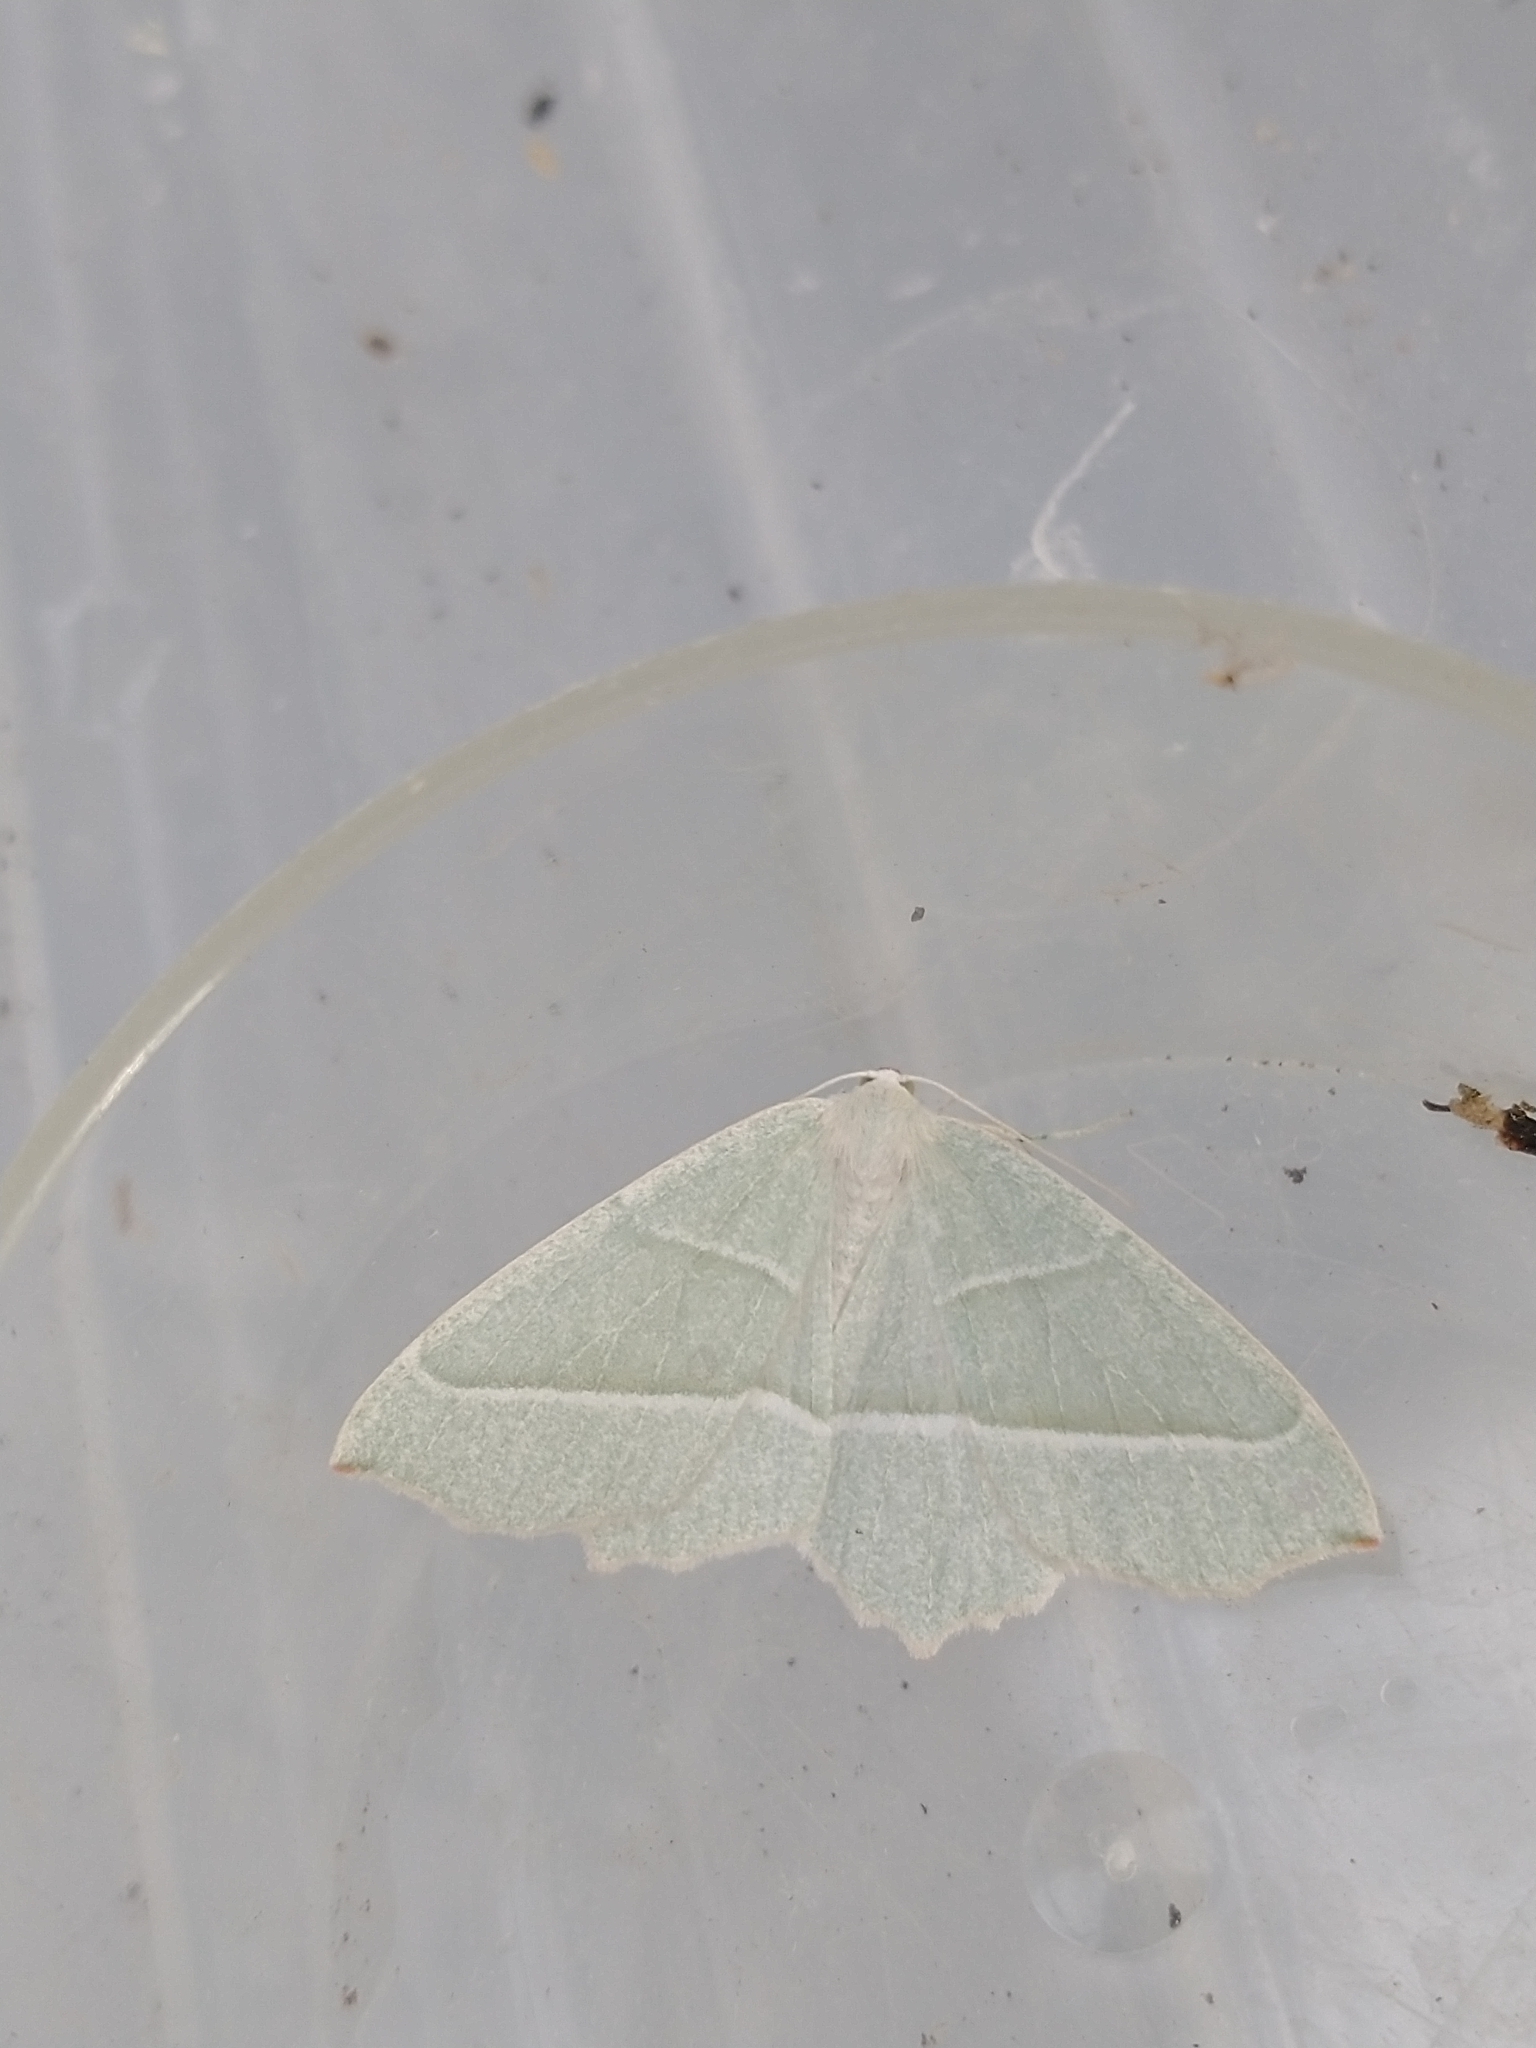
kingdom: Animalia
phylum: Arthropoda
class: Insecta
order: Lepidoptera
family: Geometridae
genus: Campaea
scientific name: Campaea margaritaria
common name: Light emerald
